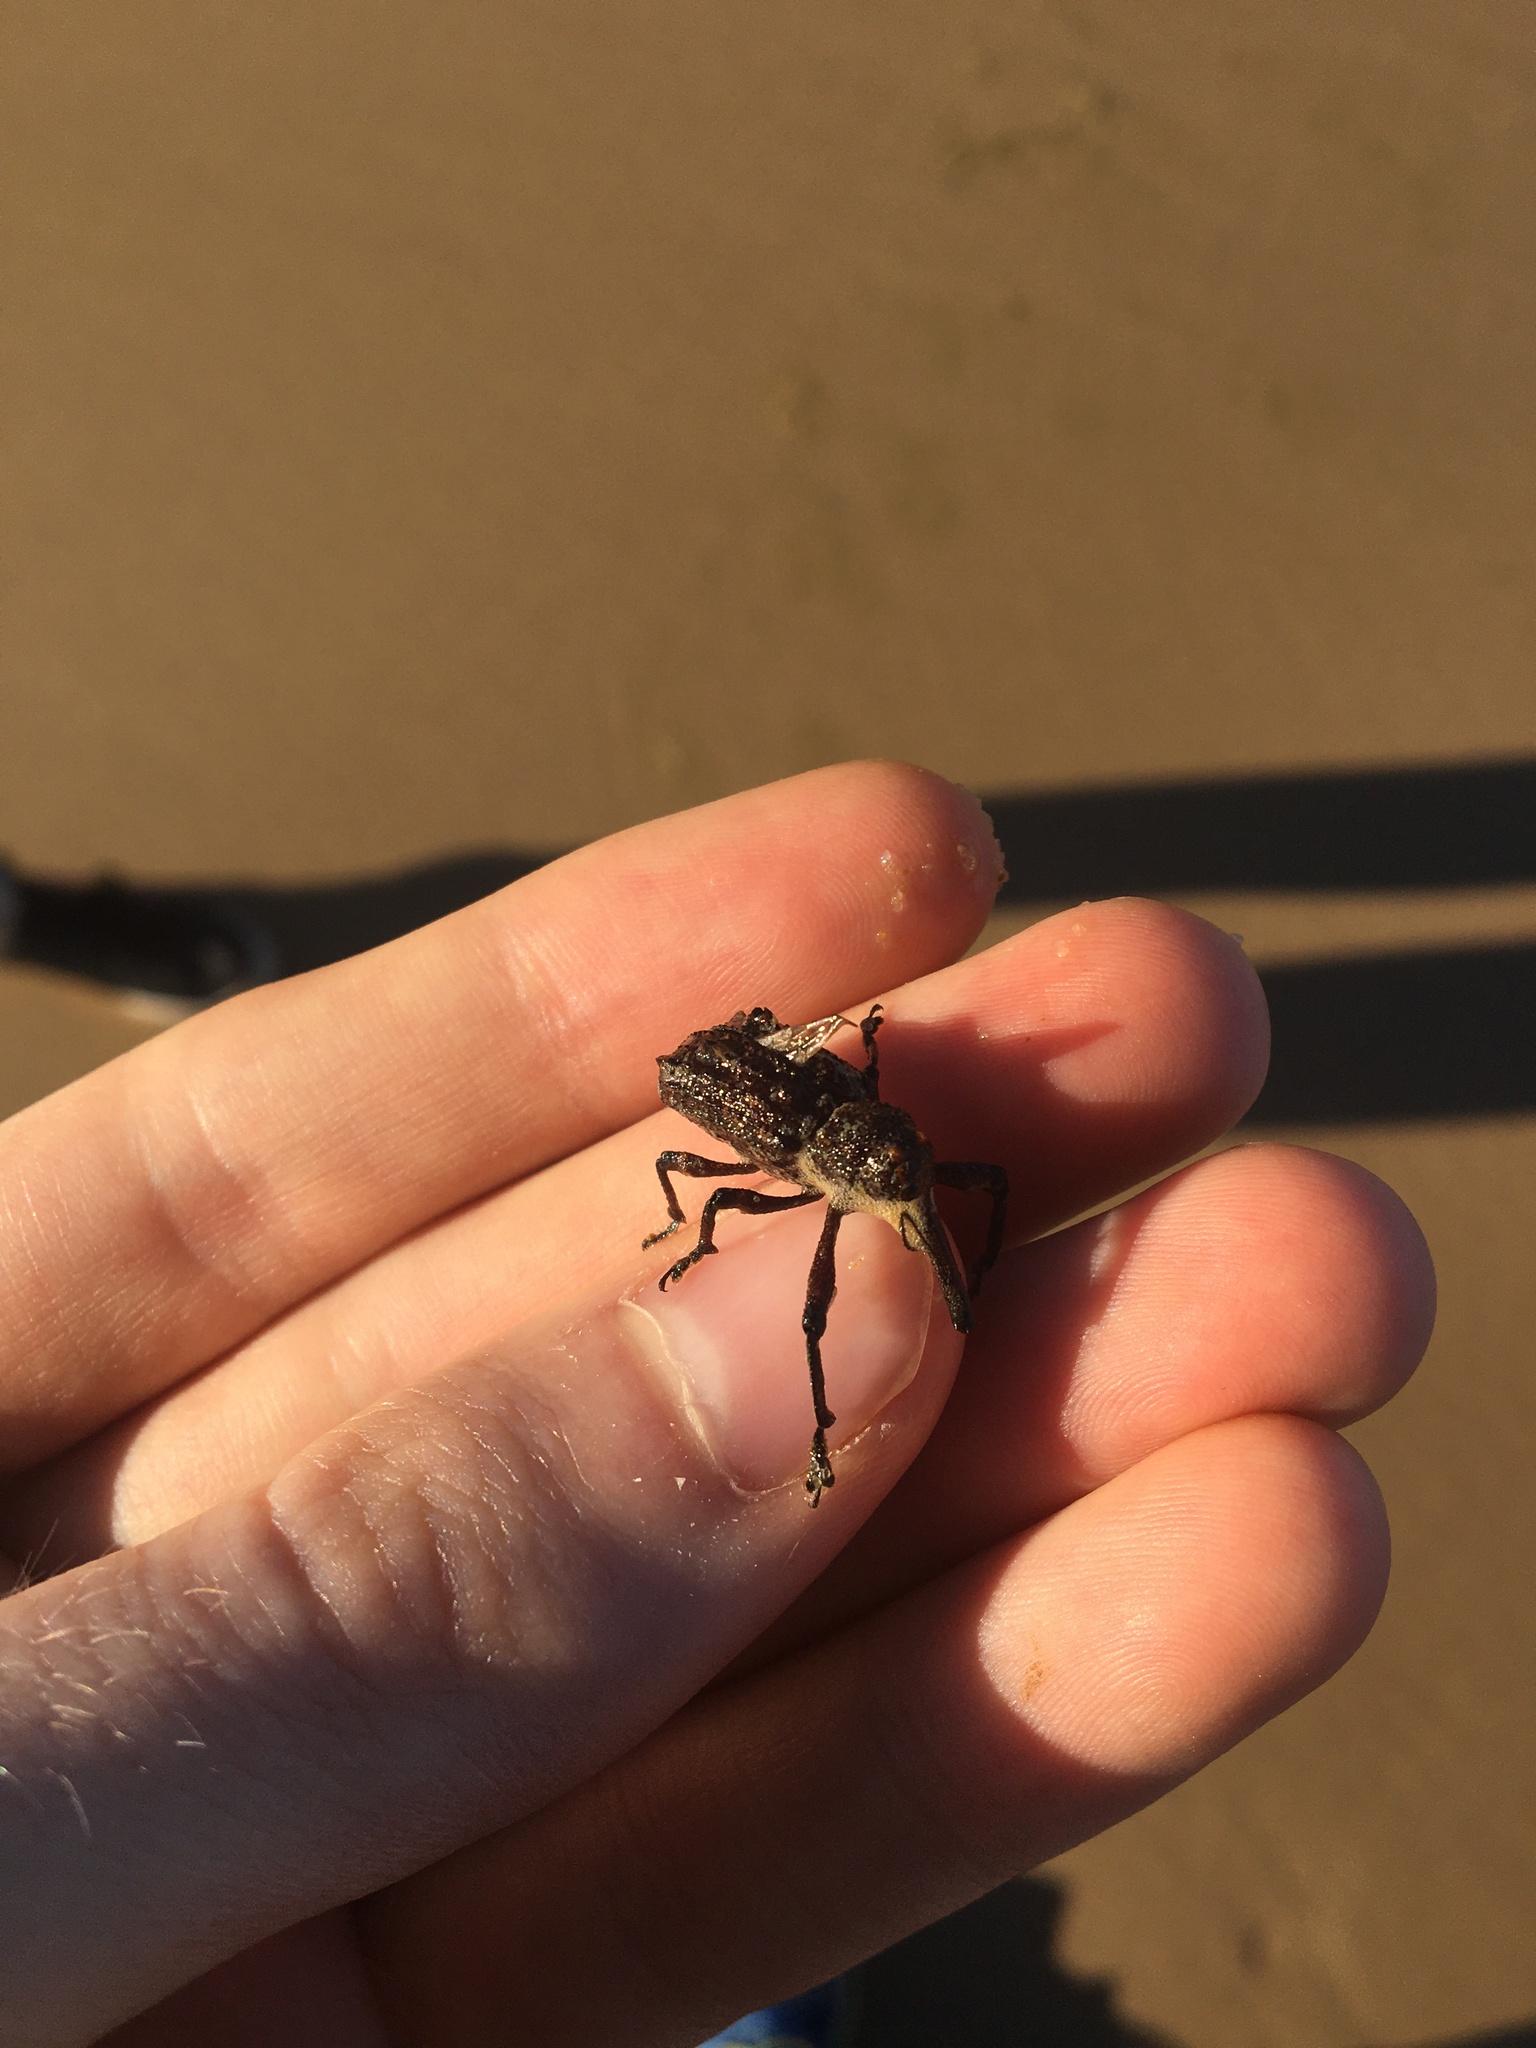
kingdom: Animalia
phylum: Arthropoda
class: Insecta
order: Coleoptera
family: Curculionidae
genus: Orthorhinus
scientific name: Orthorhinus cylindrirostris
